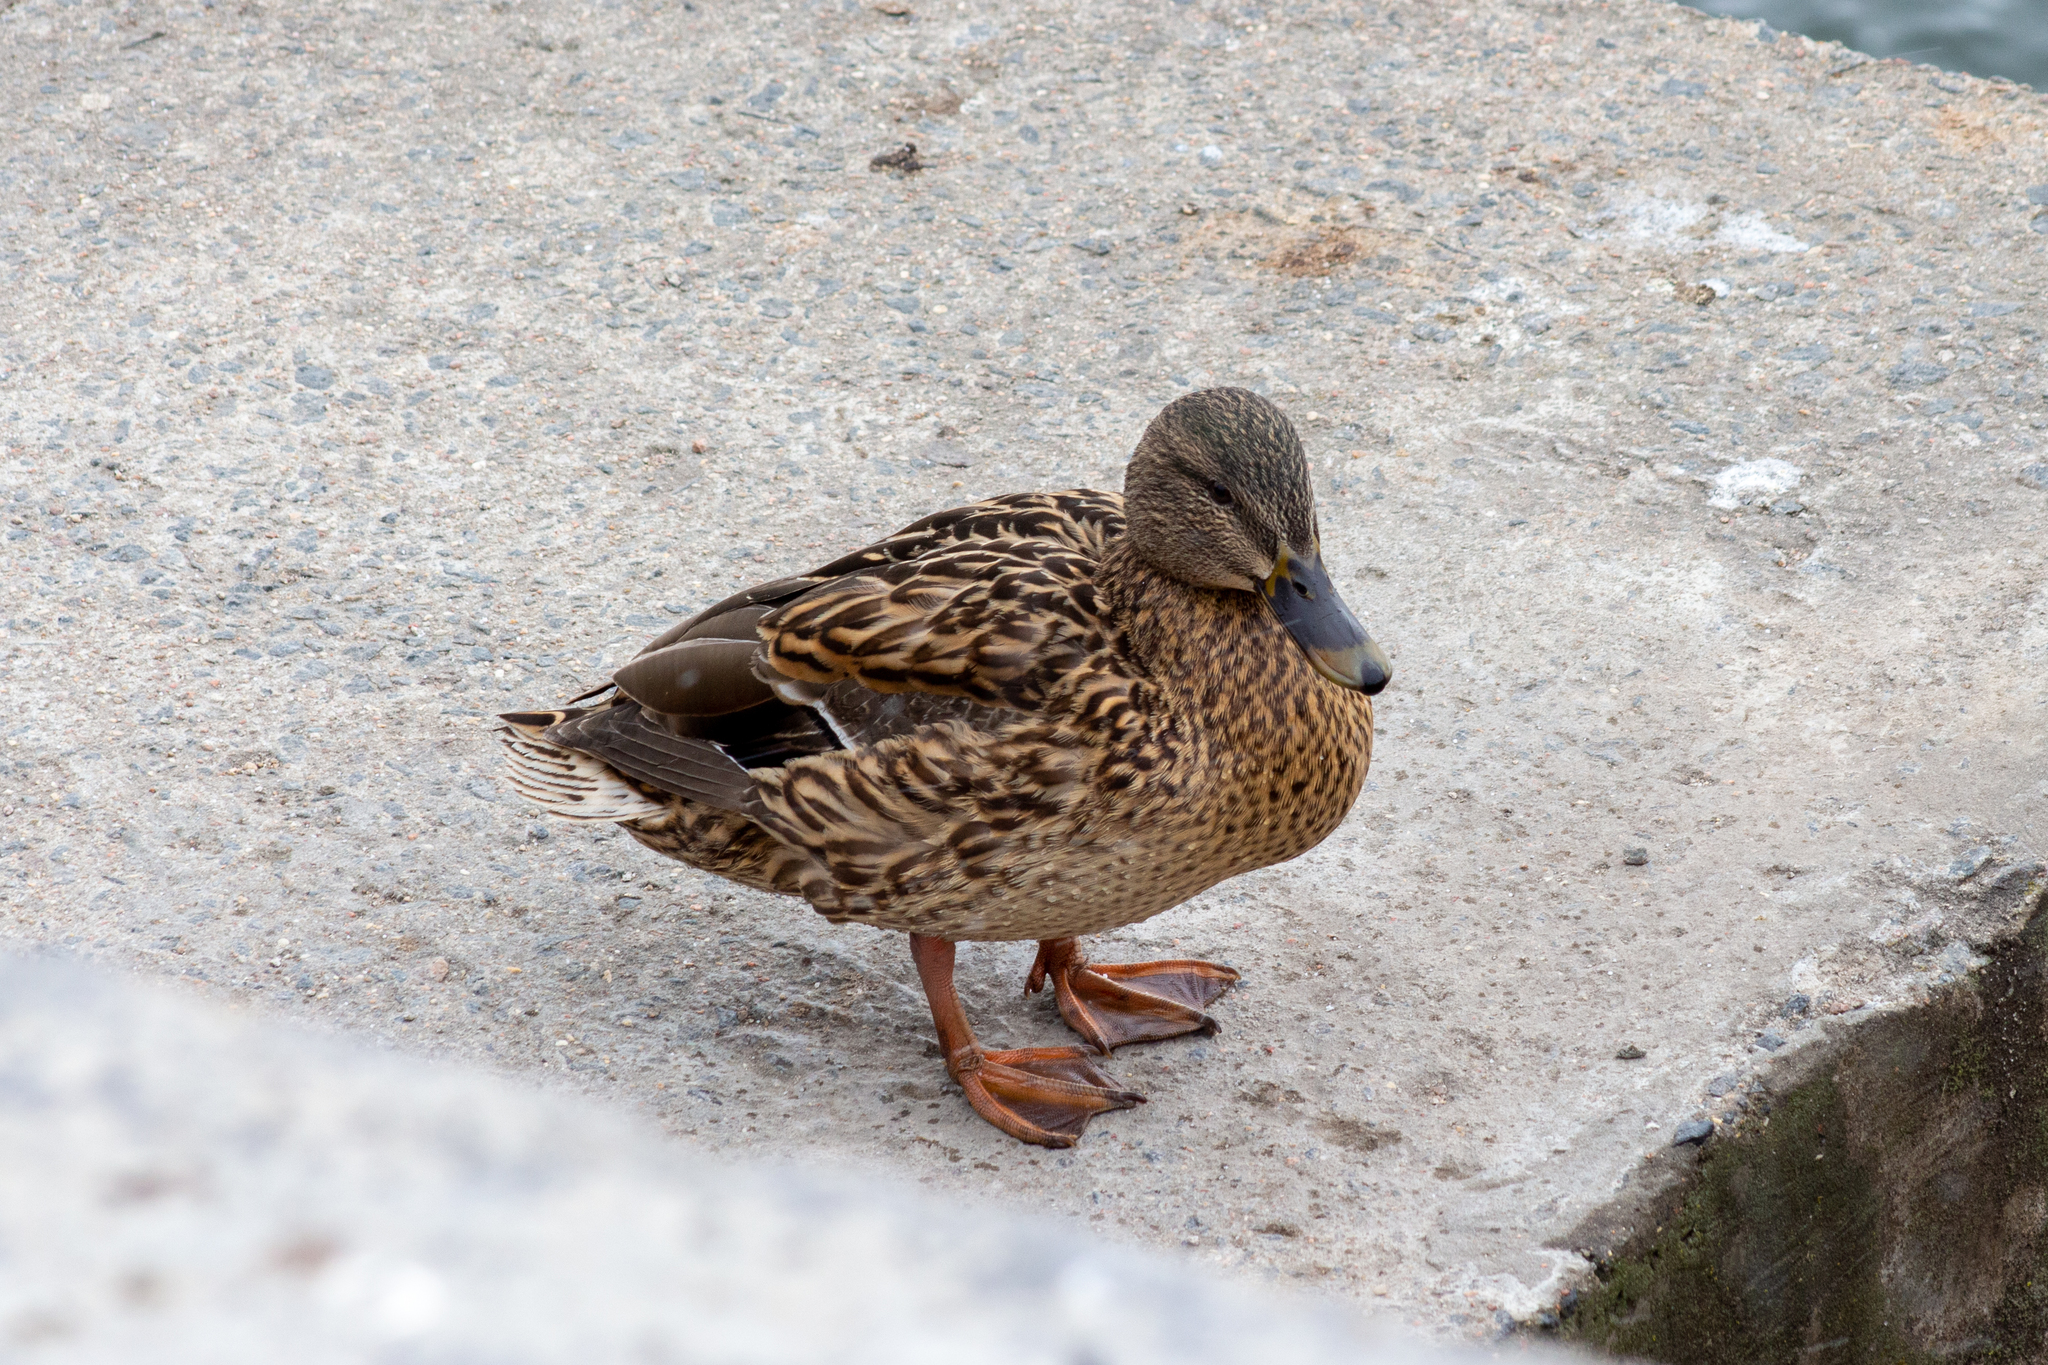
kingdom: Animalia
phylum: Chordata
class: Aves
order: Anseriformes
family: Anatidae
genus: Anas
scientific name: Anas platyrhynchos
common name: Mallard
